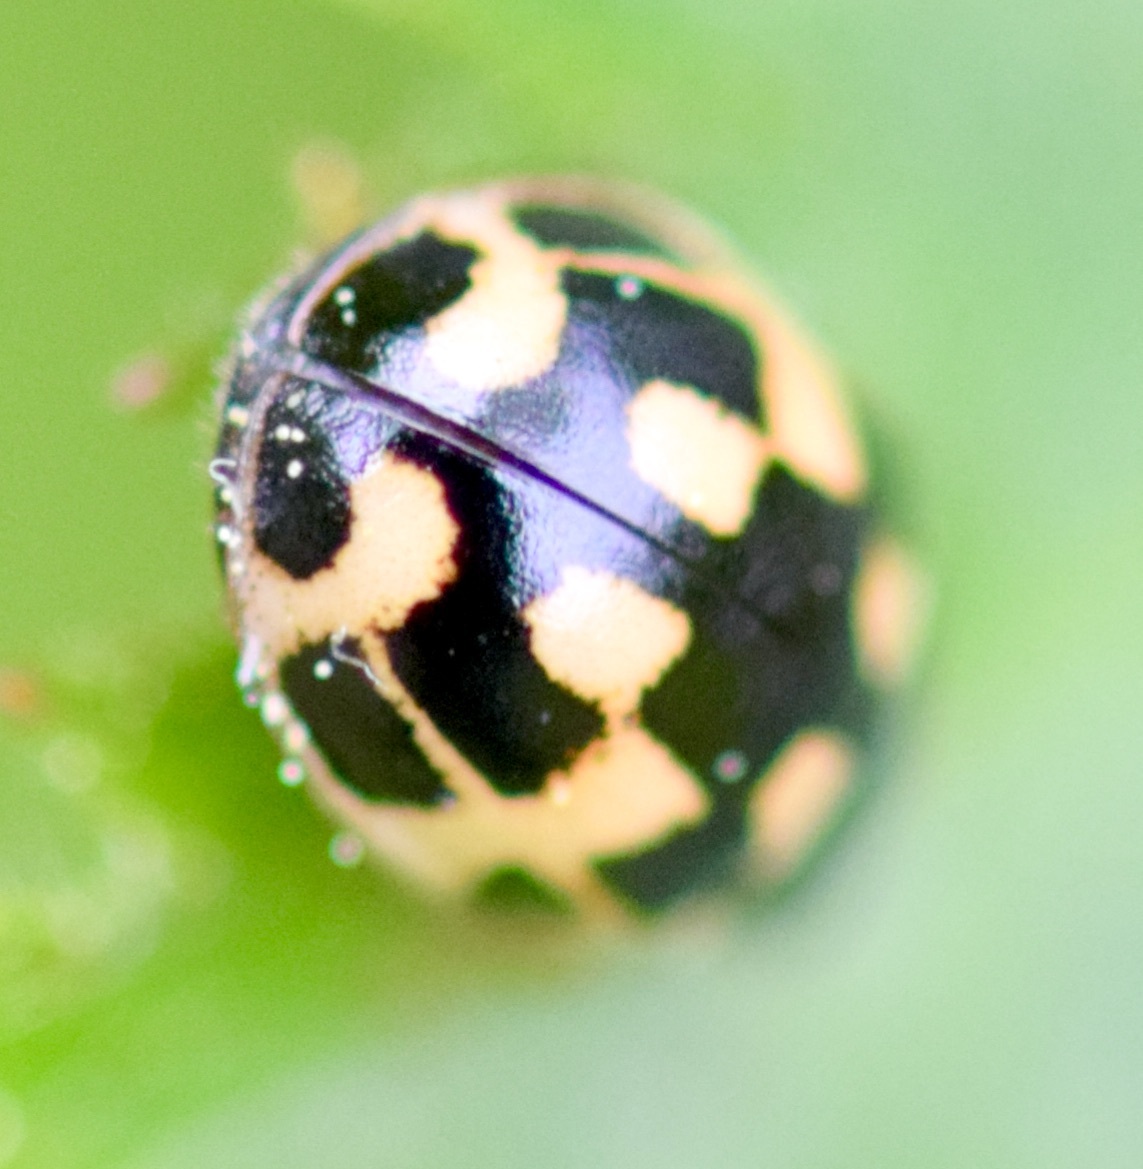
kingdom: Animalia
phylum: Arthropoda
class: Insecta
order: Coleoptera
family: Coccinellidae
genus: Propylaea
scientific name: Propylaea quatuordecimpunctata
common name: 14-spotted ladybird beetle
